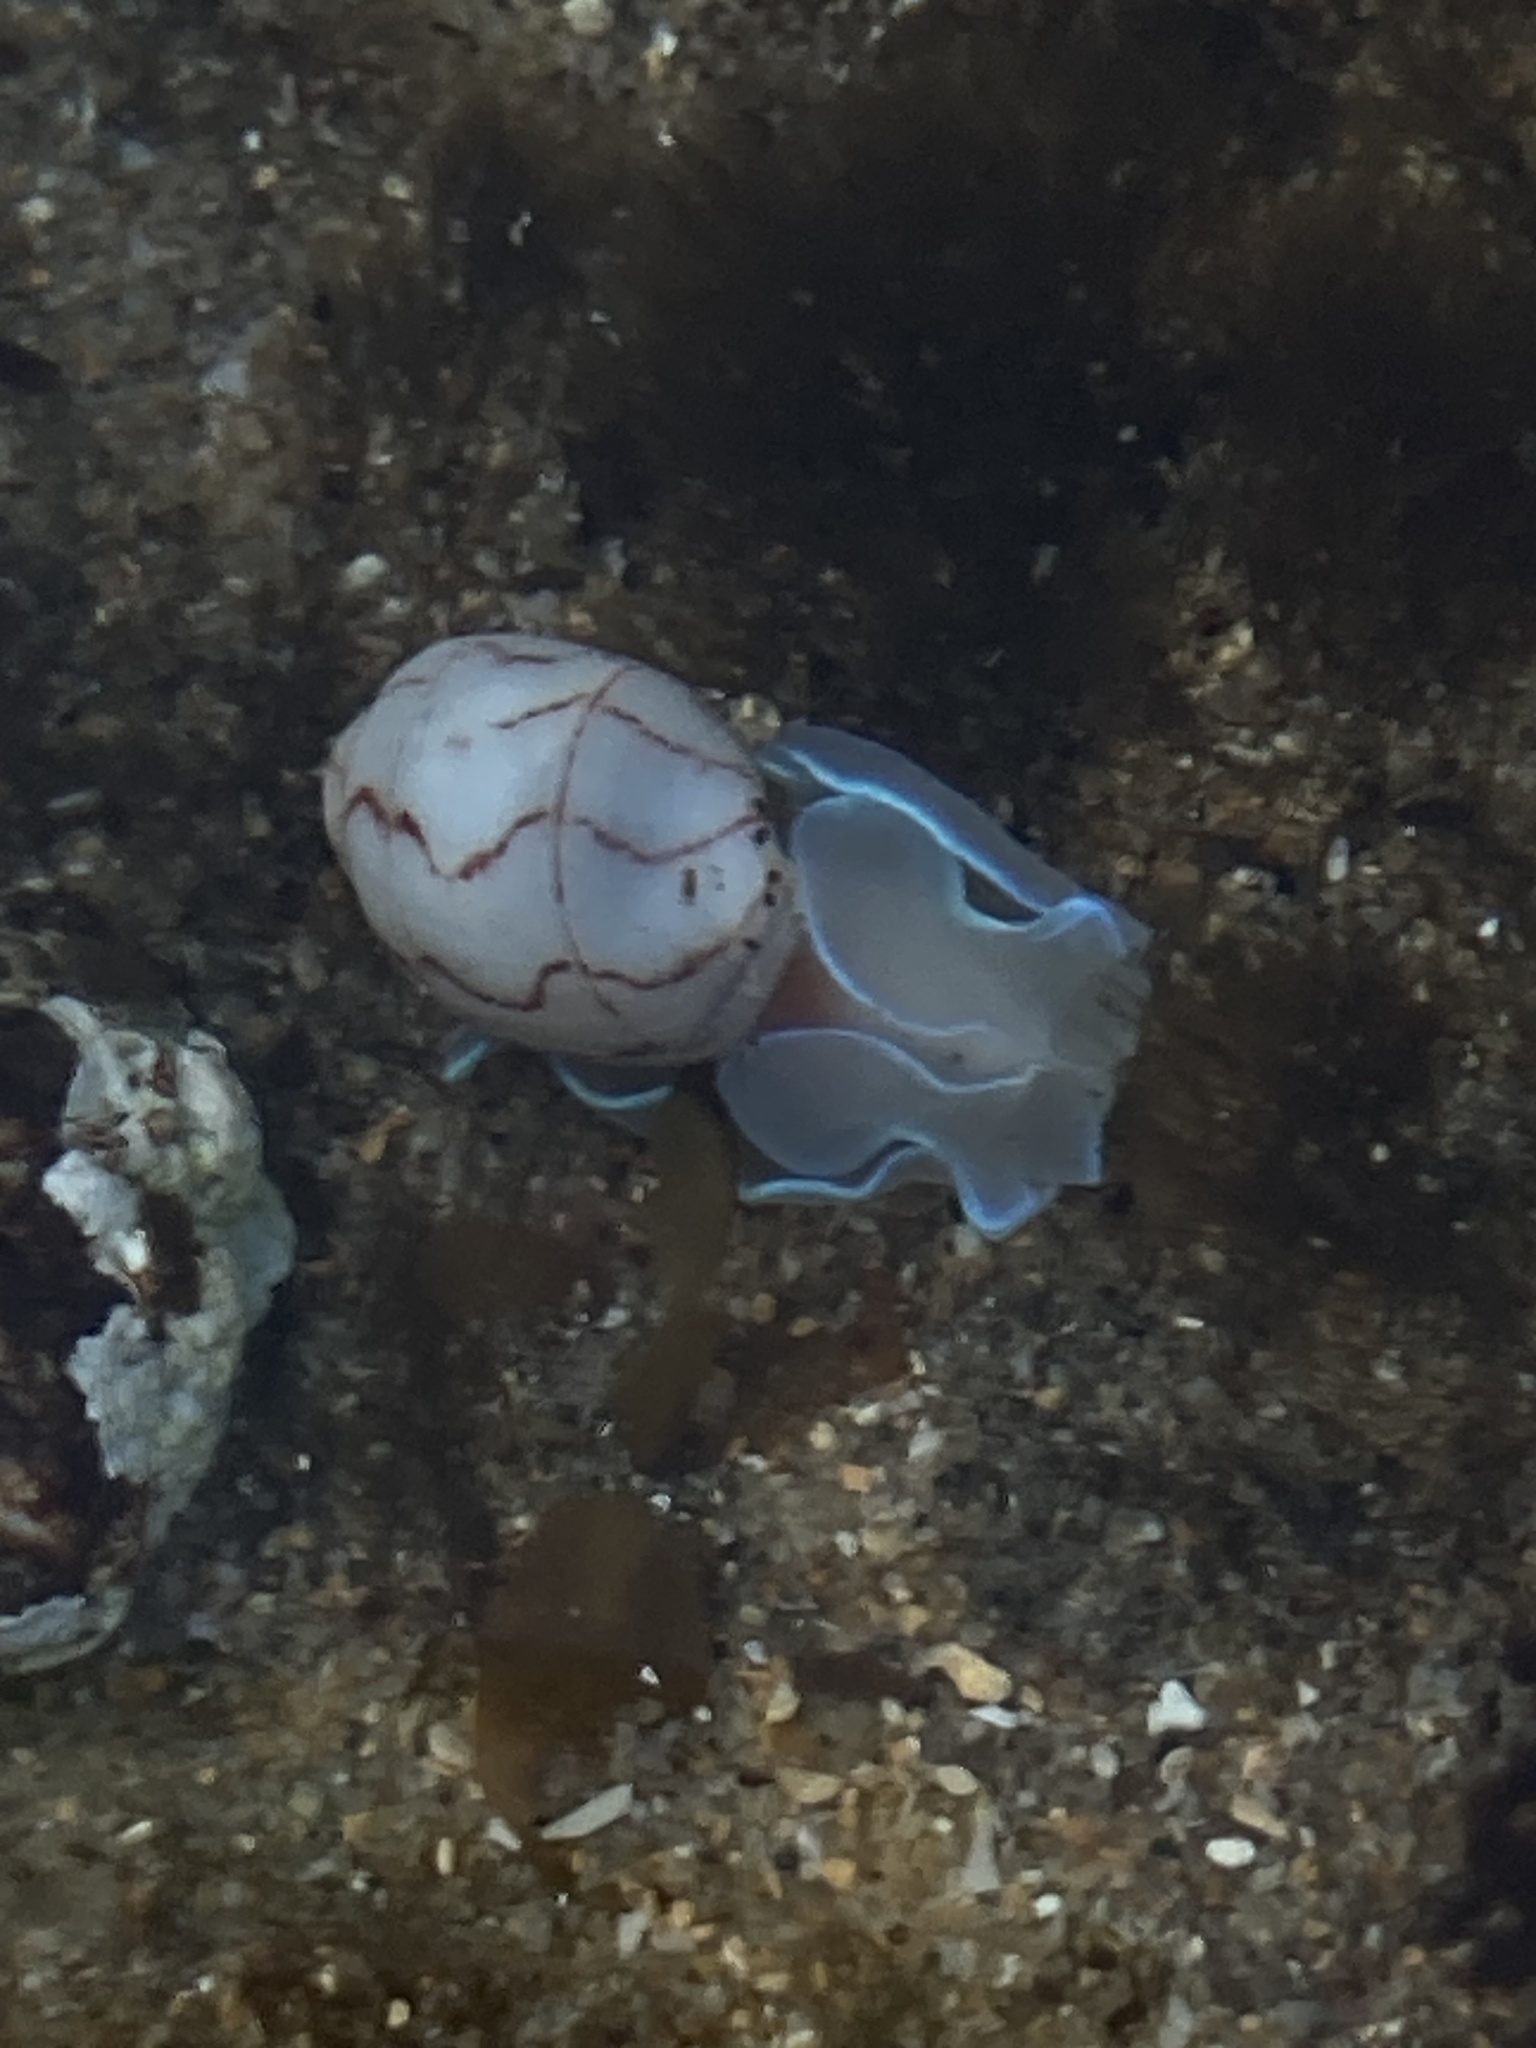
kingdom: Animalia
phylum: Mollusca
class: Gastropoda
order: Cephalaspidea
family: Aplustridae
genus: Bullina
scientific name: Bullina lineata
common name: Lined bubble snail
